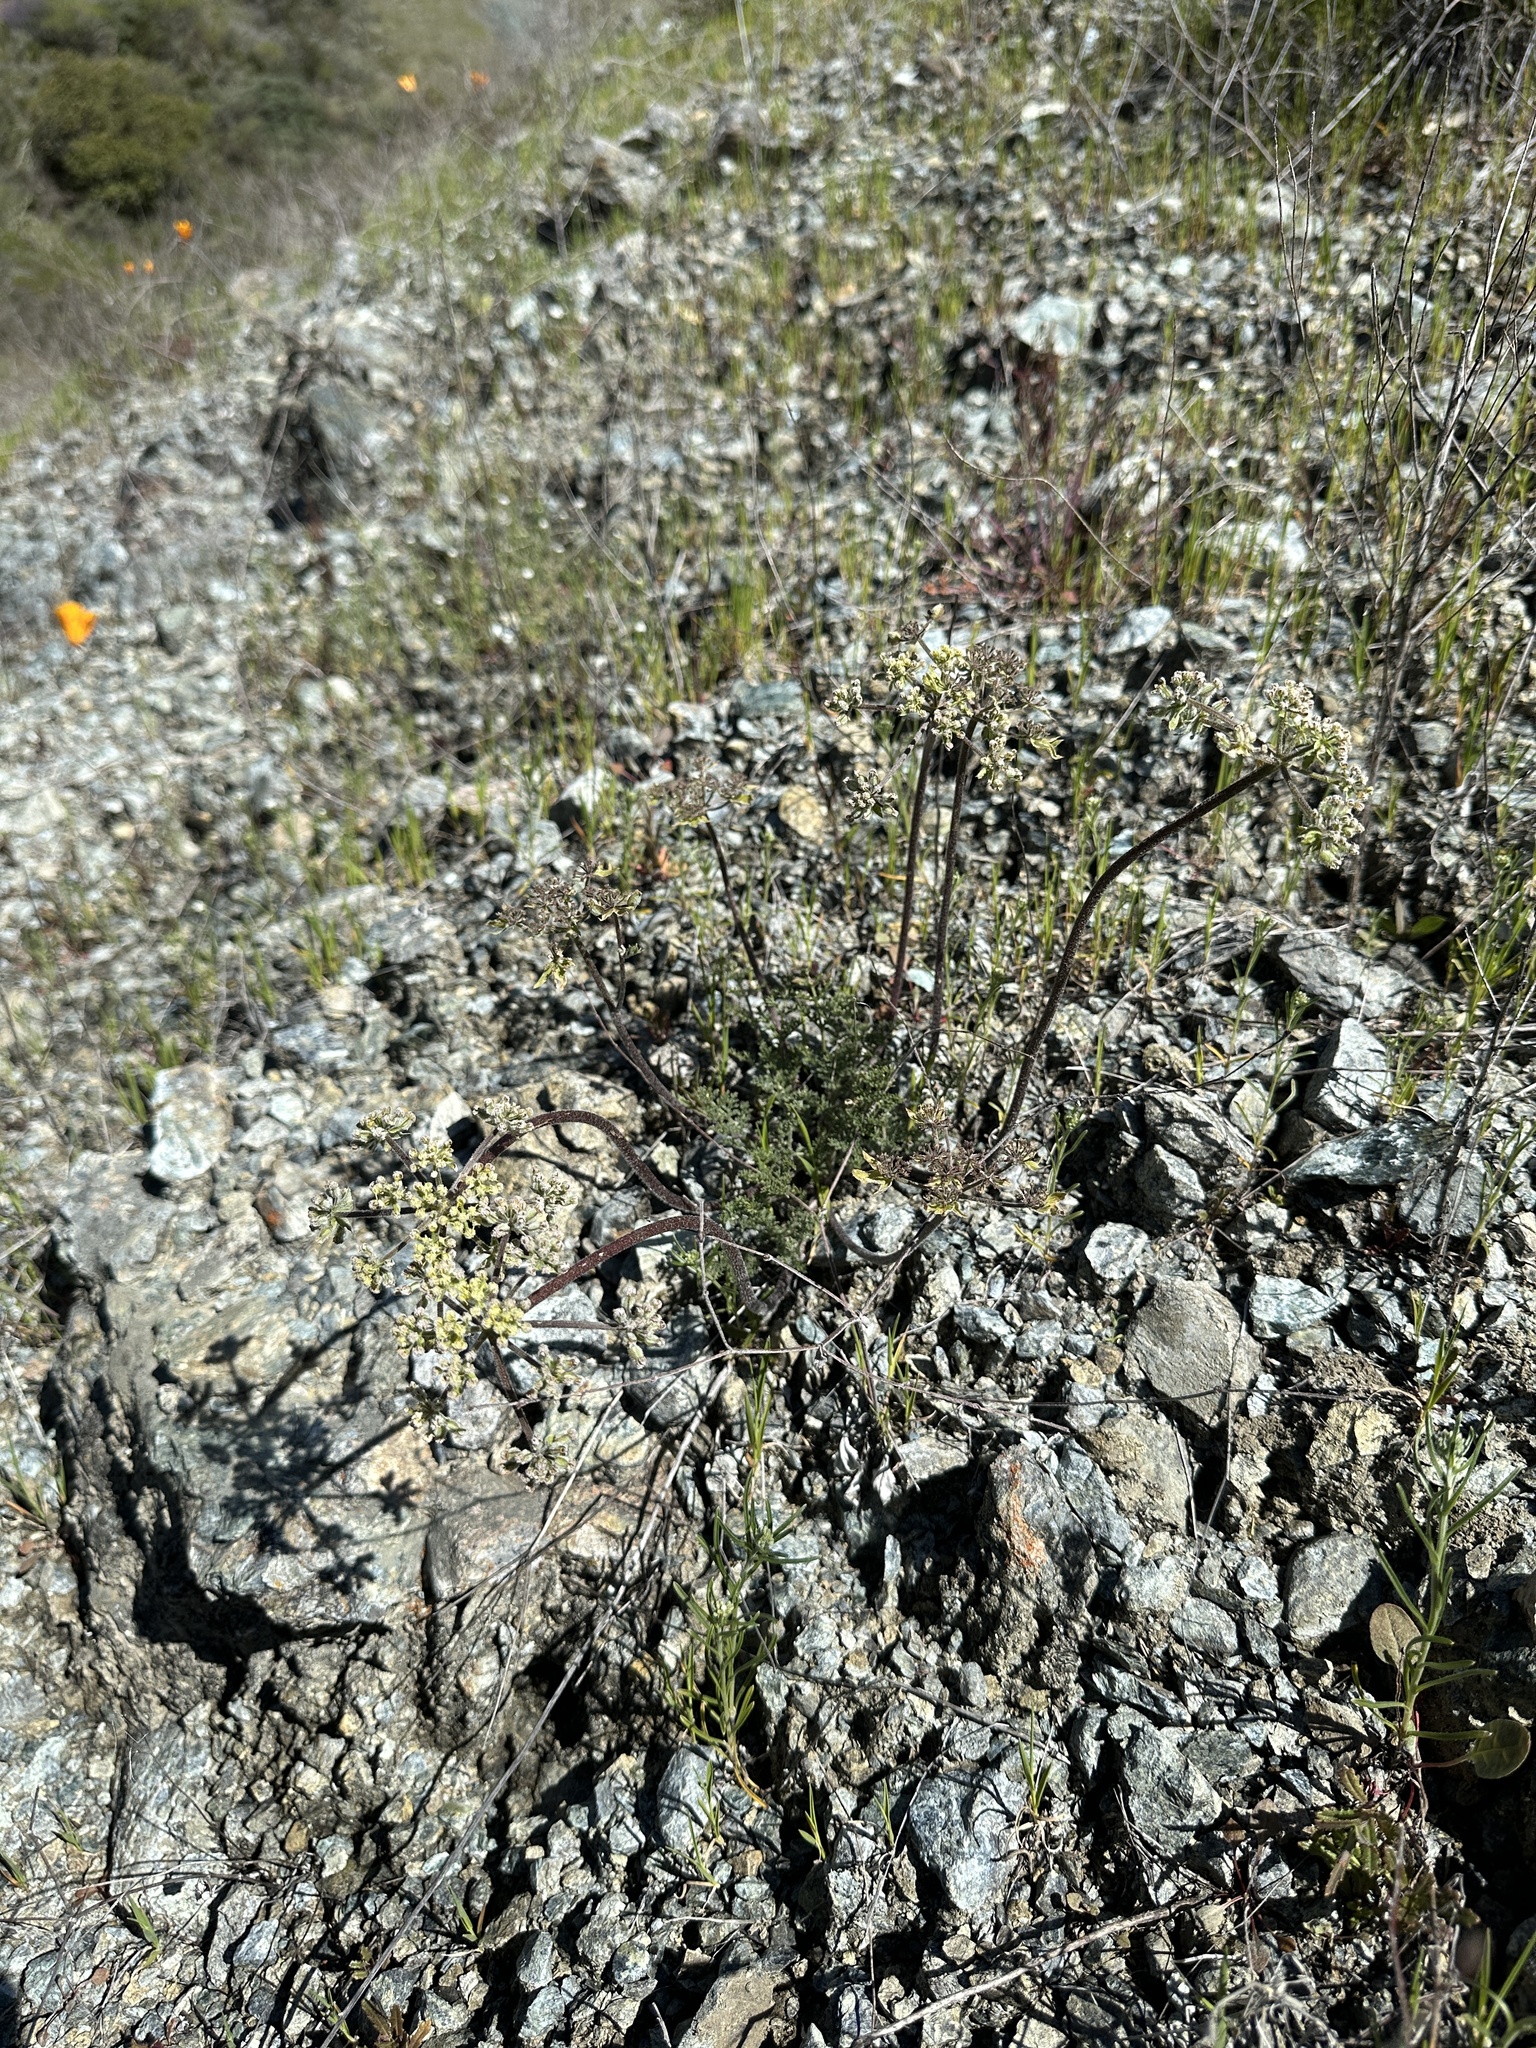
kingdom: Plantae
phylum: Tracheophyta
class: Magnoliopsida
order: Apiales
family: Apiaceae
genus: Lomatium
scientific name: Lomatium dasycarpum
